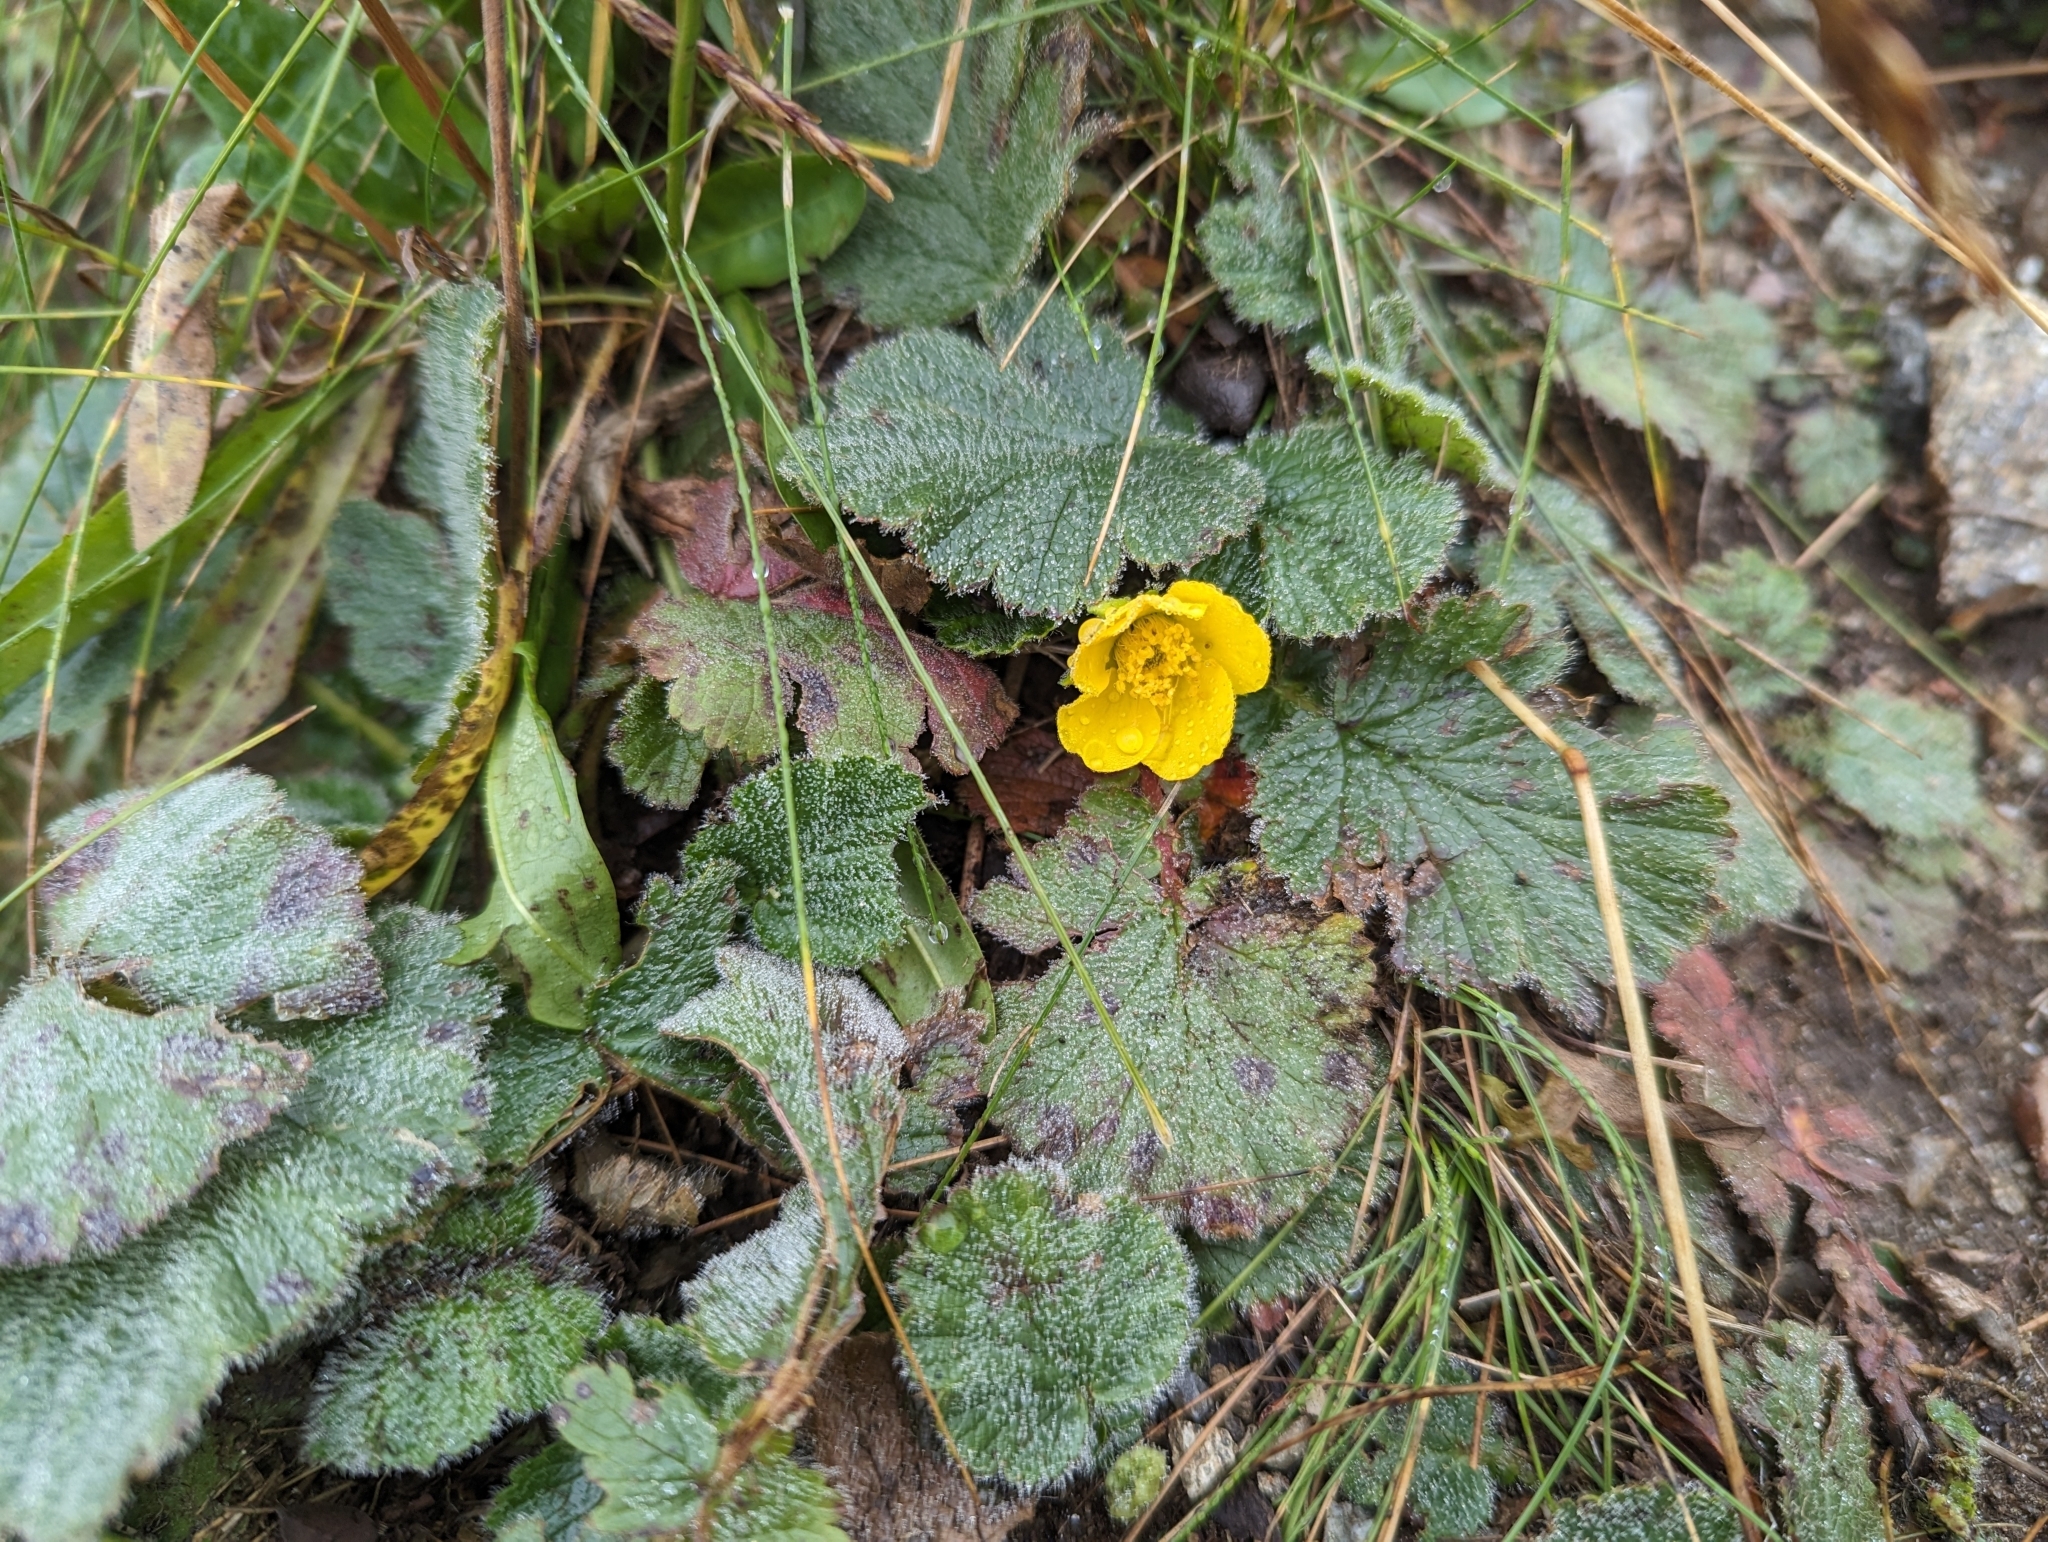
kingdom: Plantae
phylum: Tracheophyta
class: Magnoliopsida
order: Rosales
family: Rosaceae
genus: Geum
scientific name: Geum montanum
